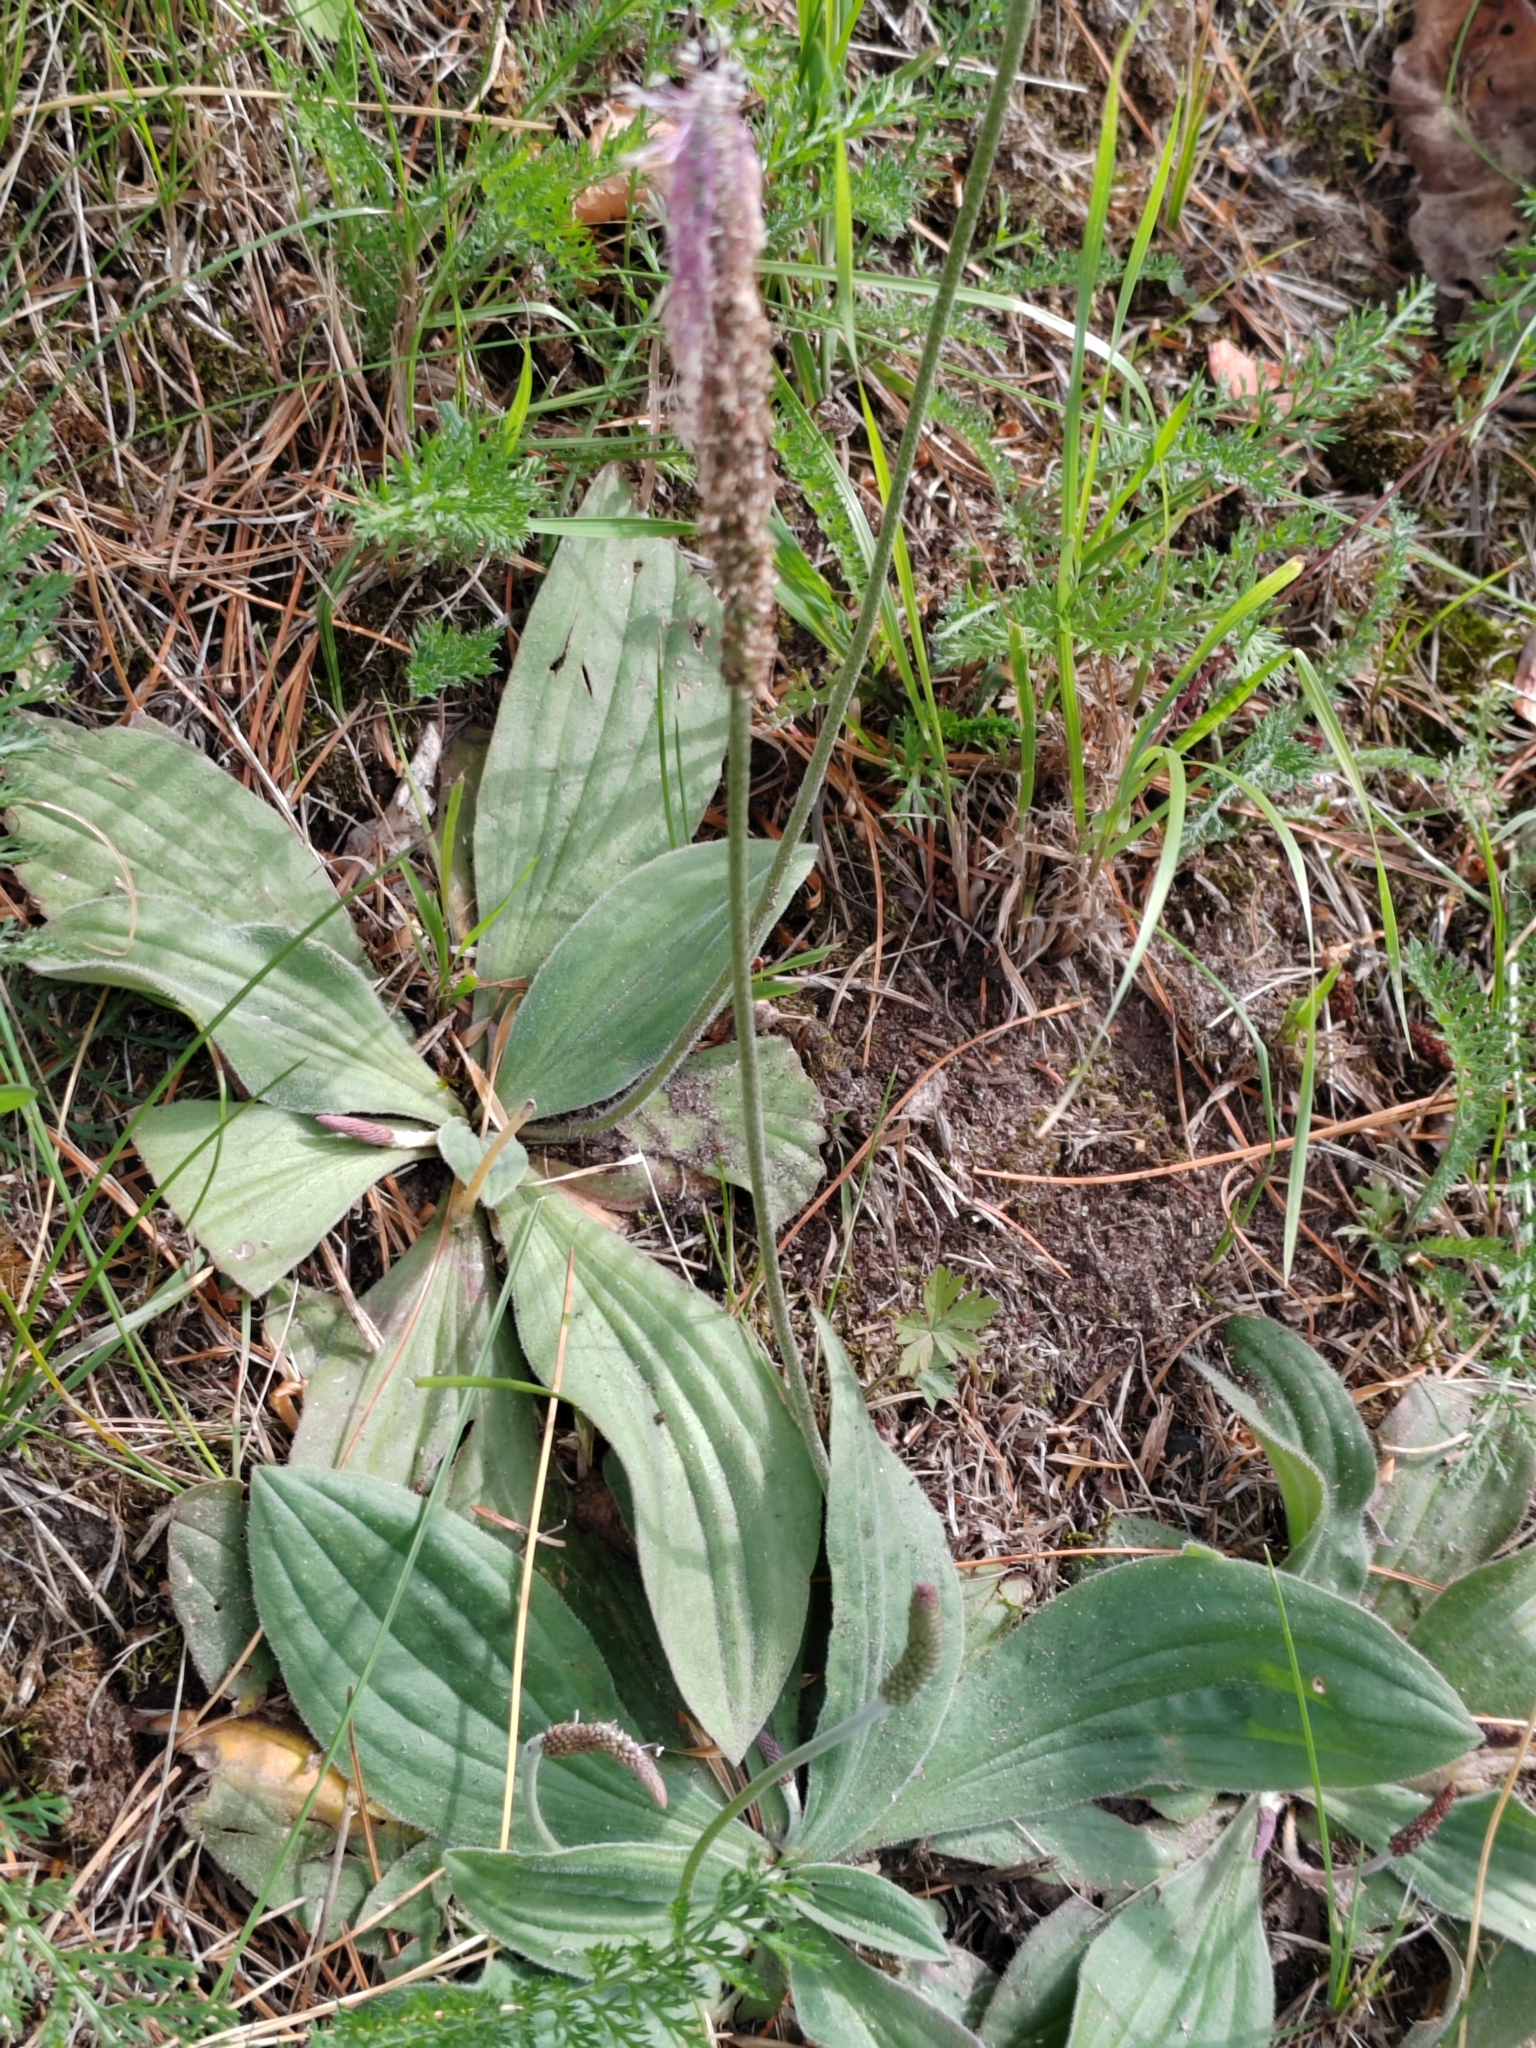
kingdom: Plantae
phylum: Tracheophyta
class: Magnoliopsida
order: Lamiales
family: Plantaginaceae
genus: Plantago
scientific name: Plantago media
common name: Hoary plantain
